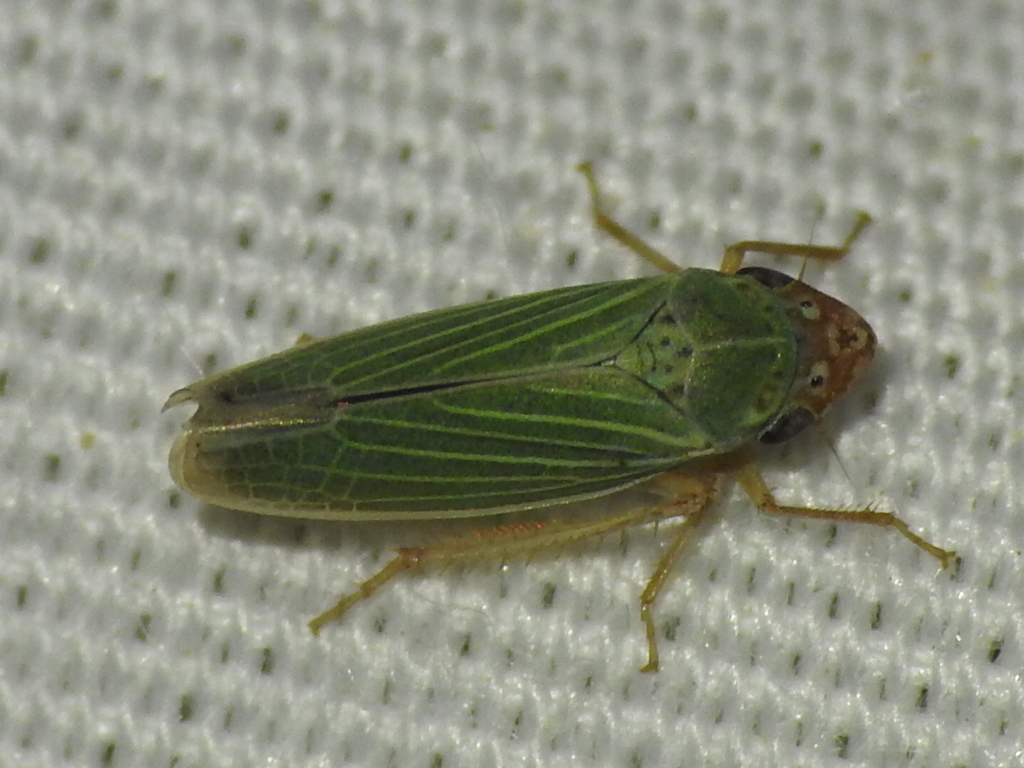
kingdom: Animalia
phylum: Arthropoda
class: Insecta
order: Hemiptera
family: Cicadellidae
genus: Xyphon
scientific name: Xyphon reticulatum
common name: Planthopper
